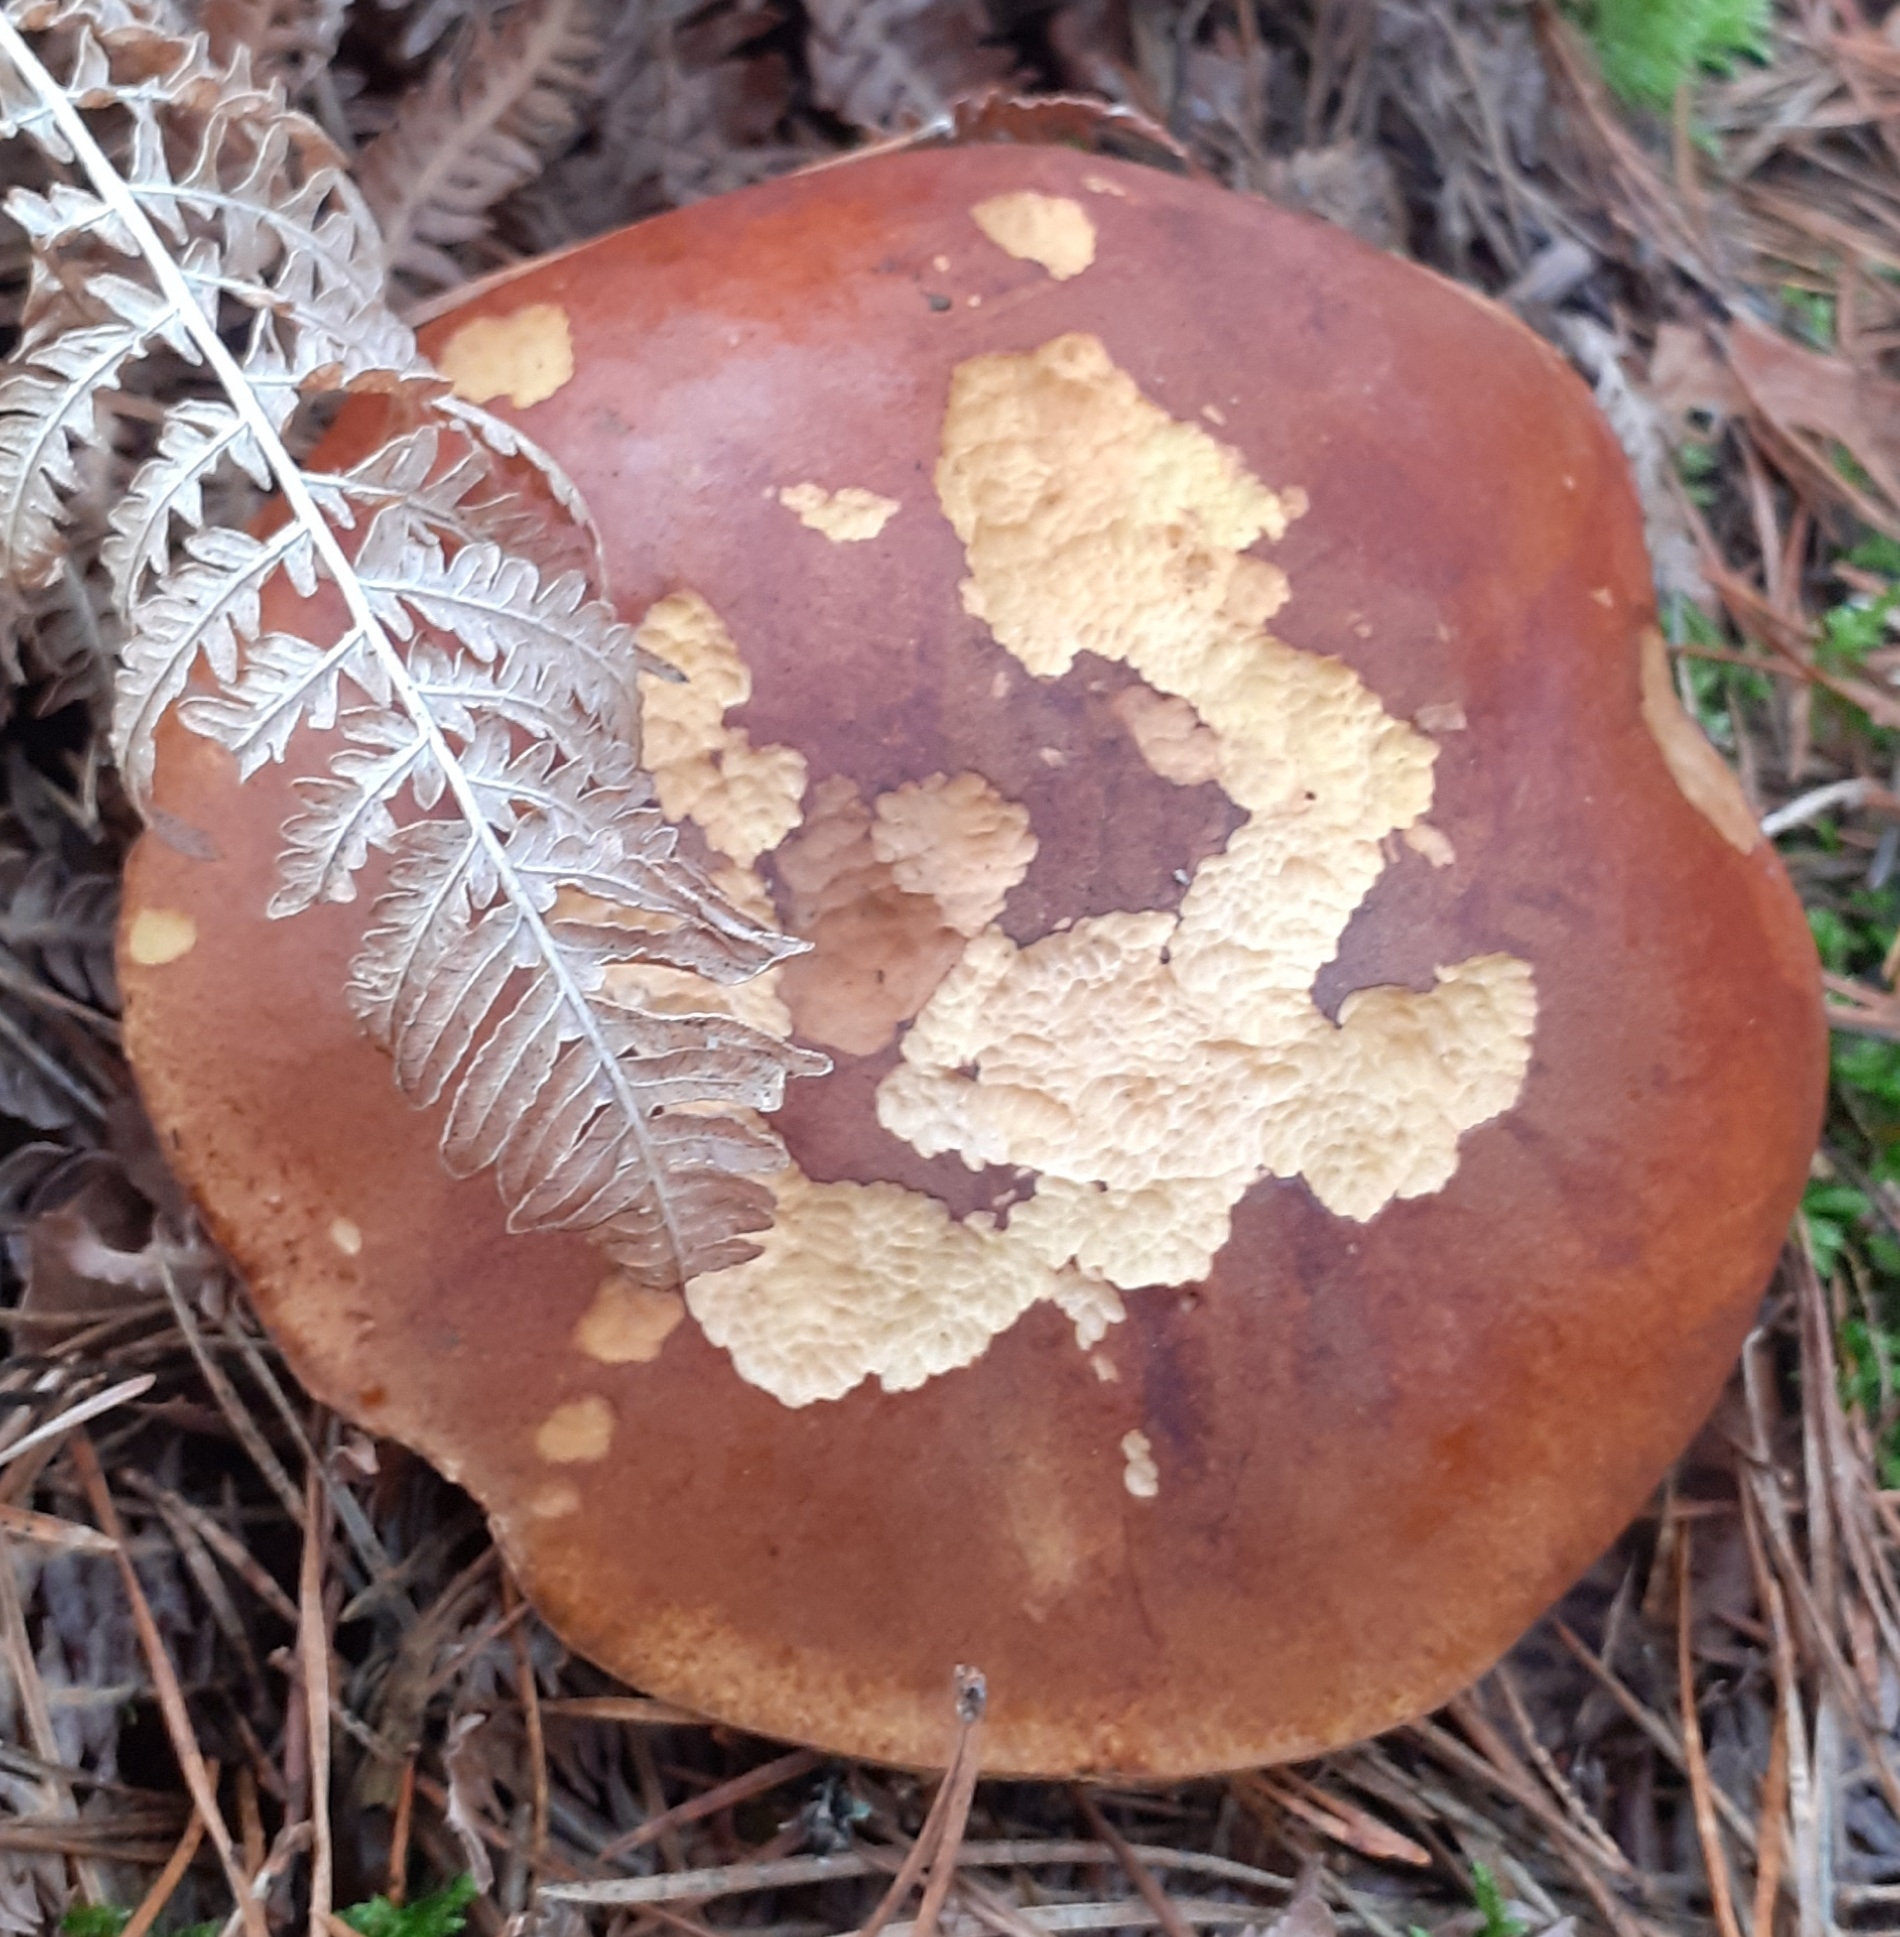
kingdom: Fungi
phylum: Basidiomycota
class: Agaricomycetes
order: Boletales
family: Boletaceae
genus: Imleria
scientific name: Imleria badia
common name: Bay bolete
